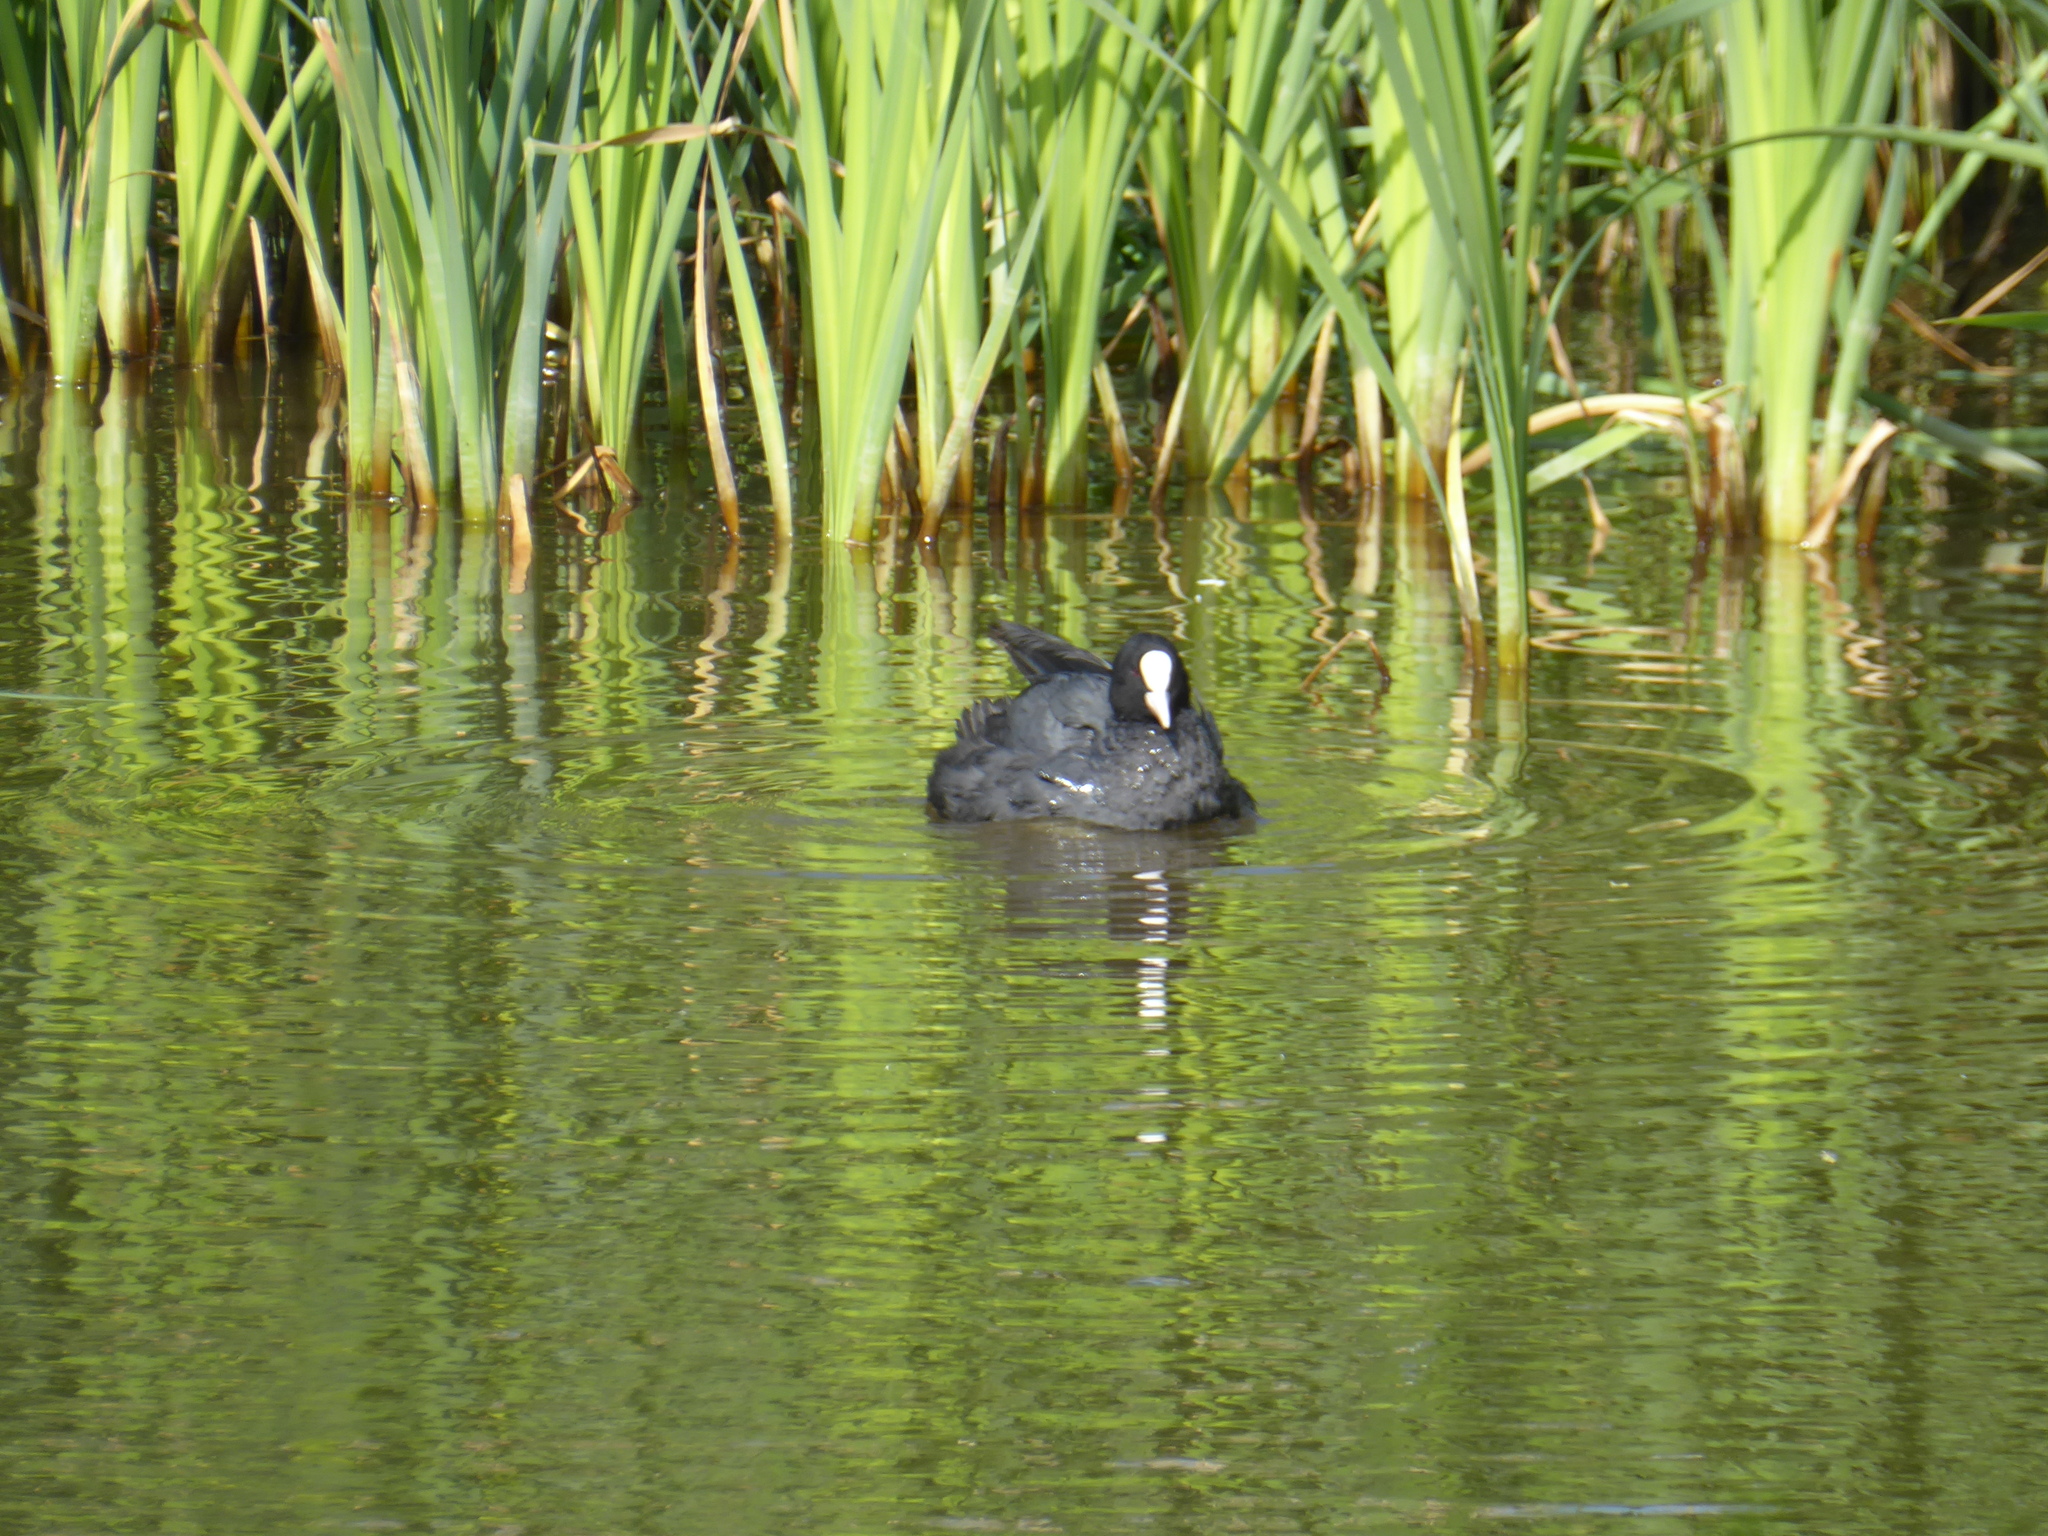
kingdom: Animalia
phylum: Chordata
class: Aves
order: Gruiformes
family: Rallidae
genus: Fulica
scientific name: Fulica atra
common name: Eurasian coot
